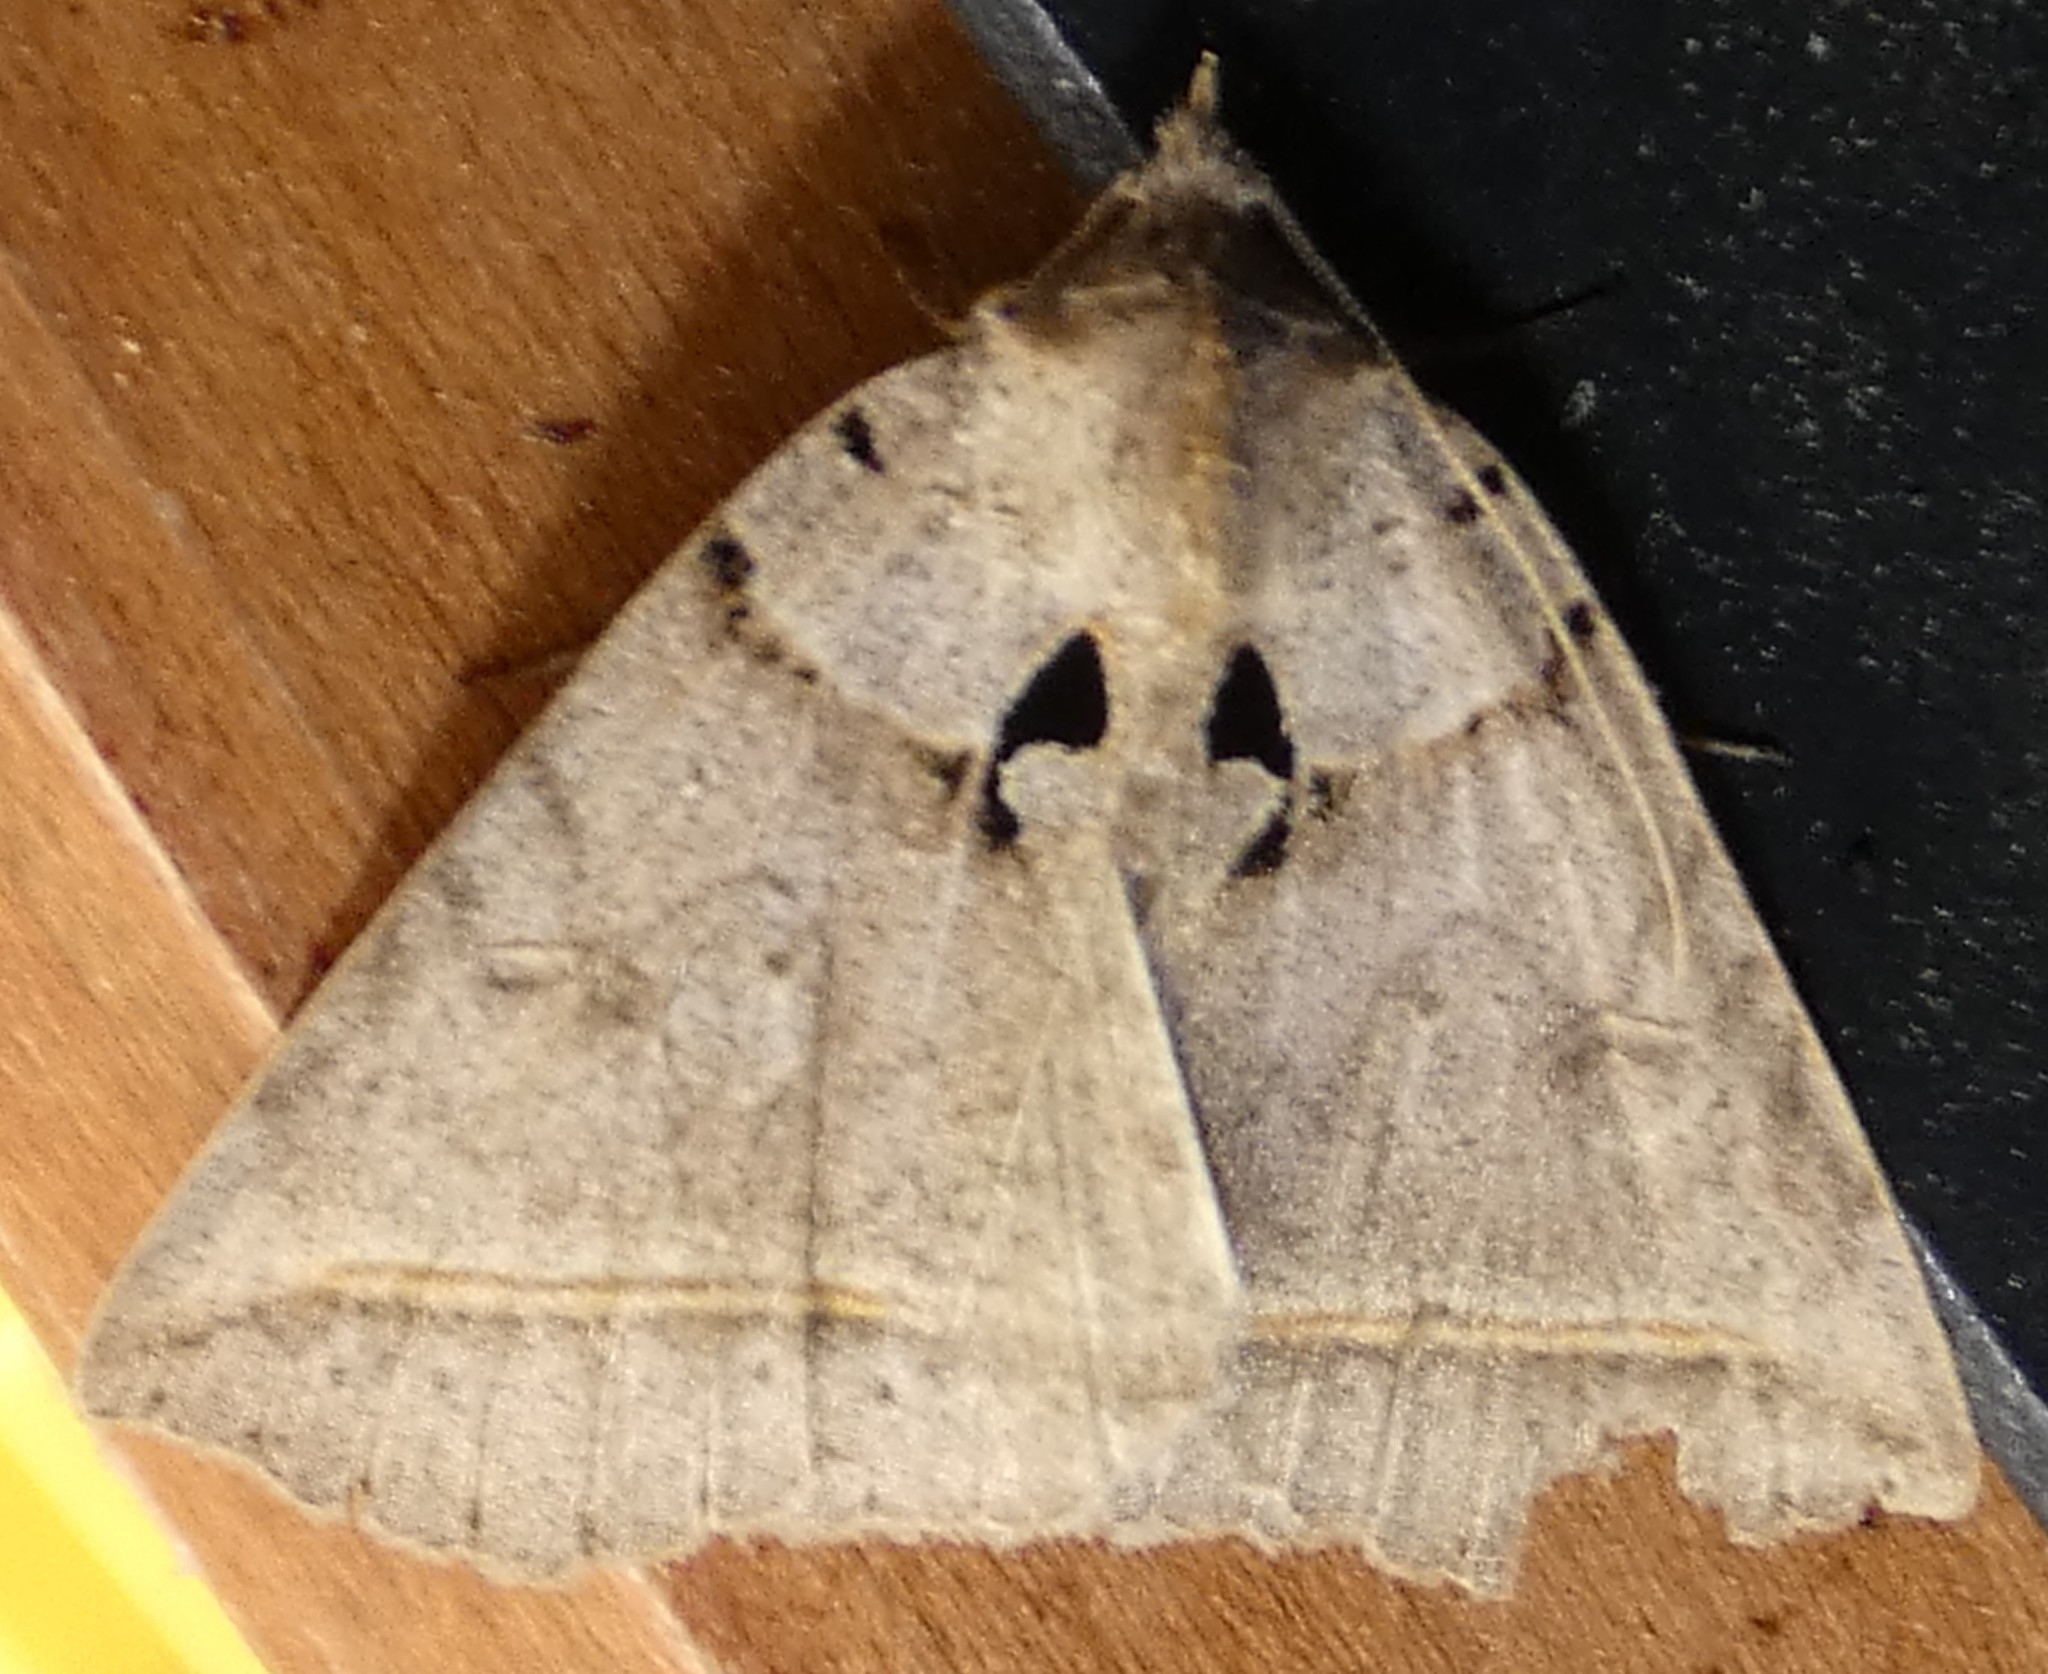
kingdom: Animalia
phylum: Arthropoda
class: Insecta
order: Lepidoptera
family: Erebidae
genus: Celiptera
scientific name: Celiptera frustulum
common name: Black bit moth
